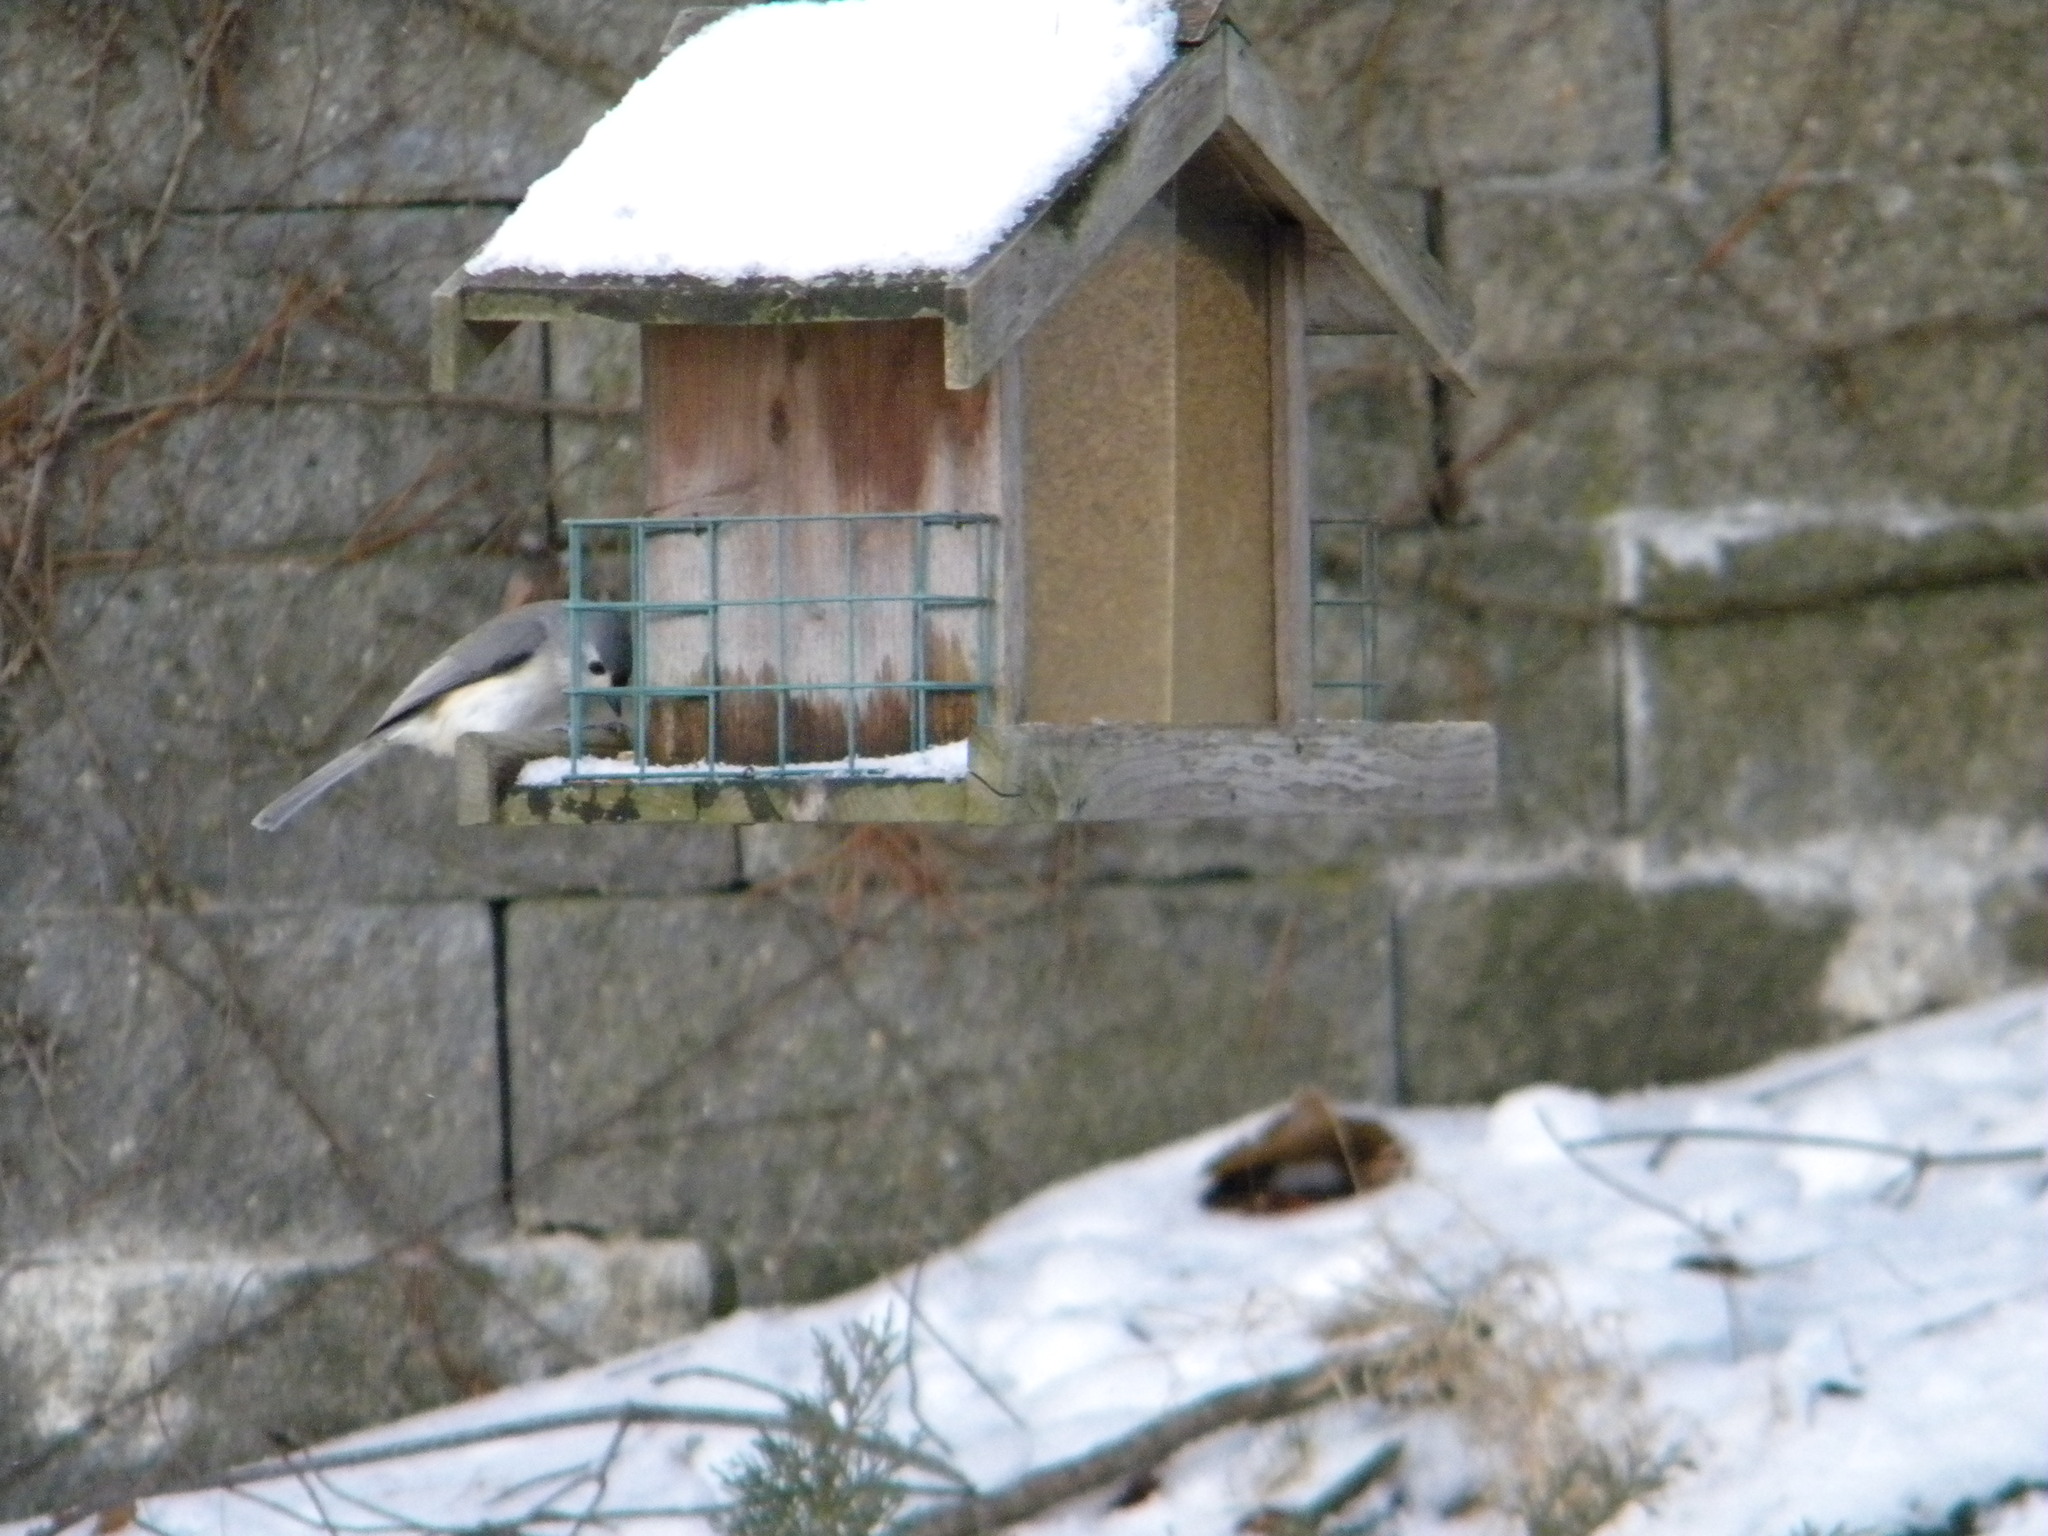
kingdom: Animalia
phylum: Chordata
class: Aves
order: Passeriformes
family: Paridae
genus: Baeolophus
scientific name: Baeolophus bicolor
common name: Tufted titmouse
